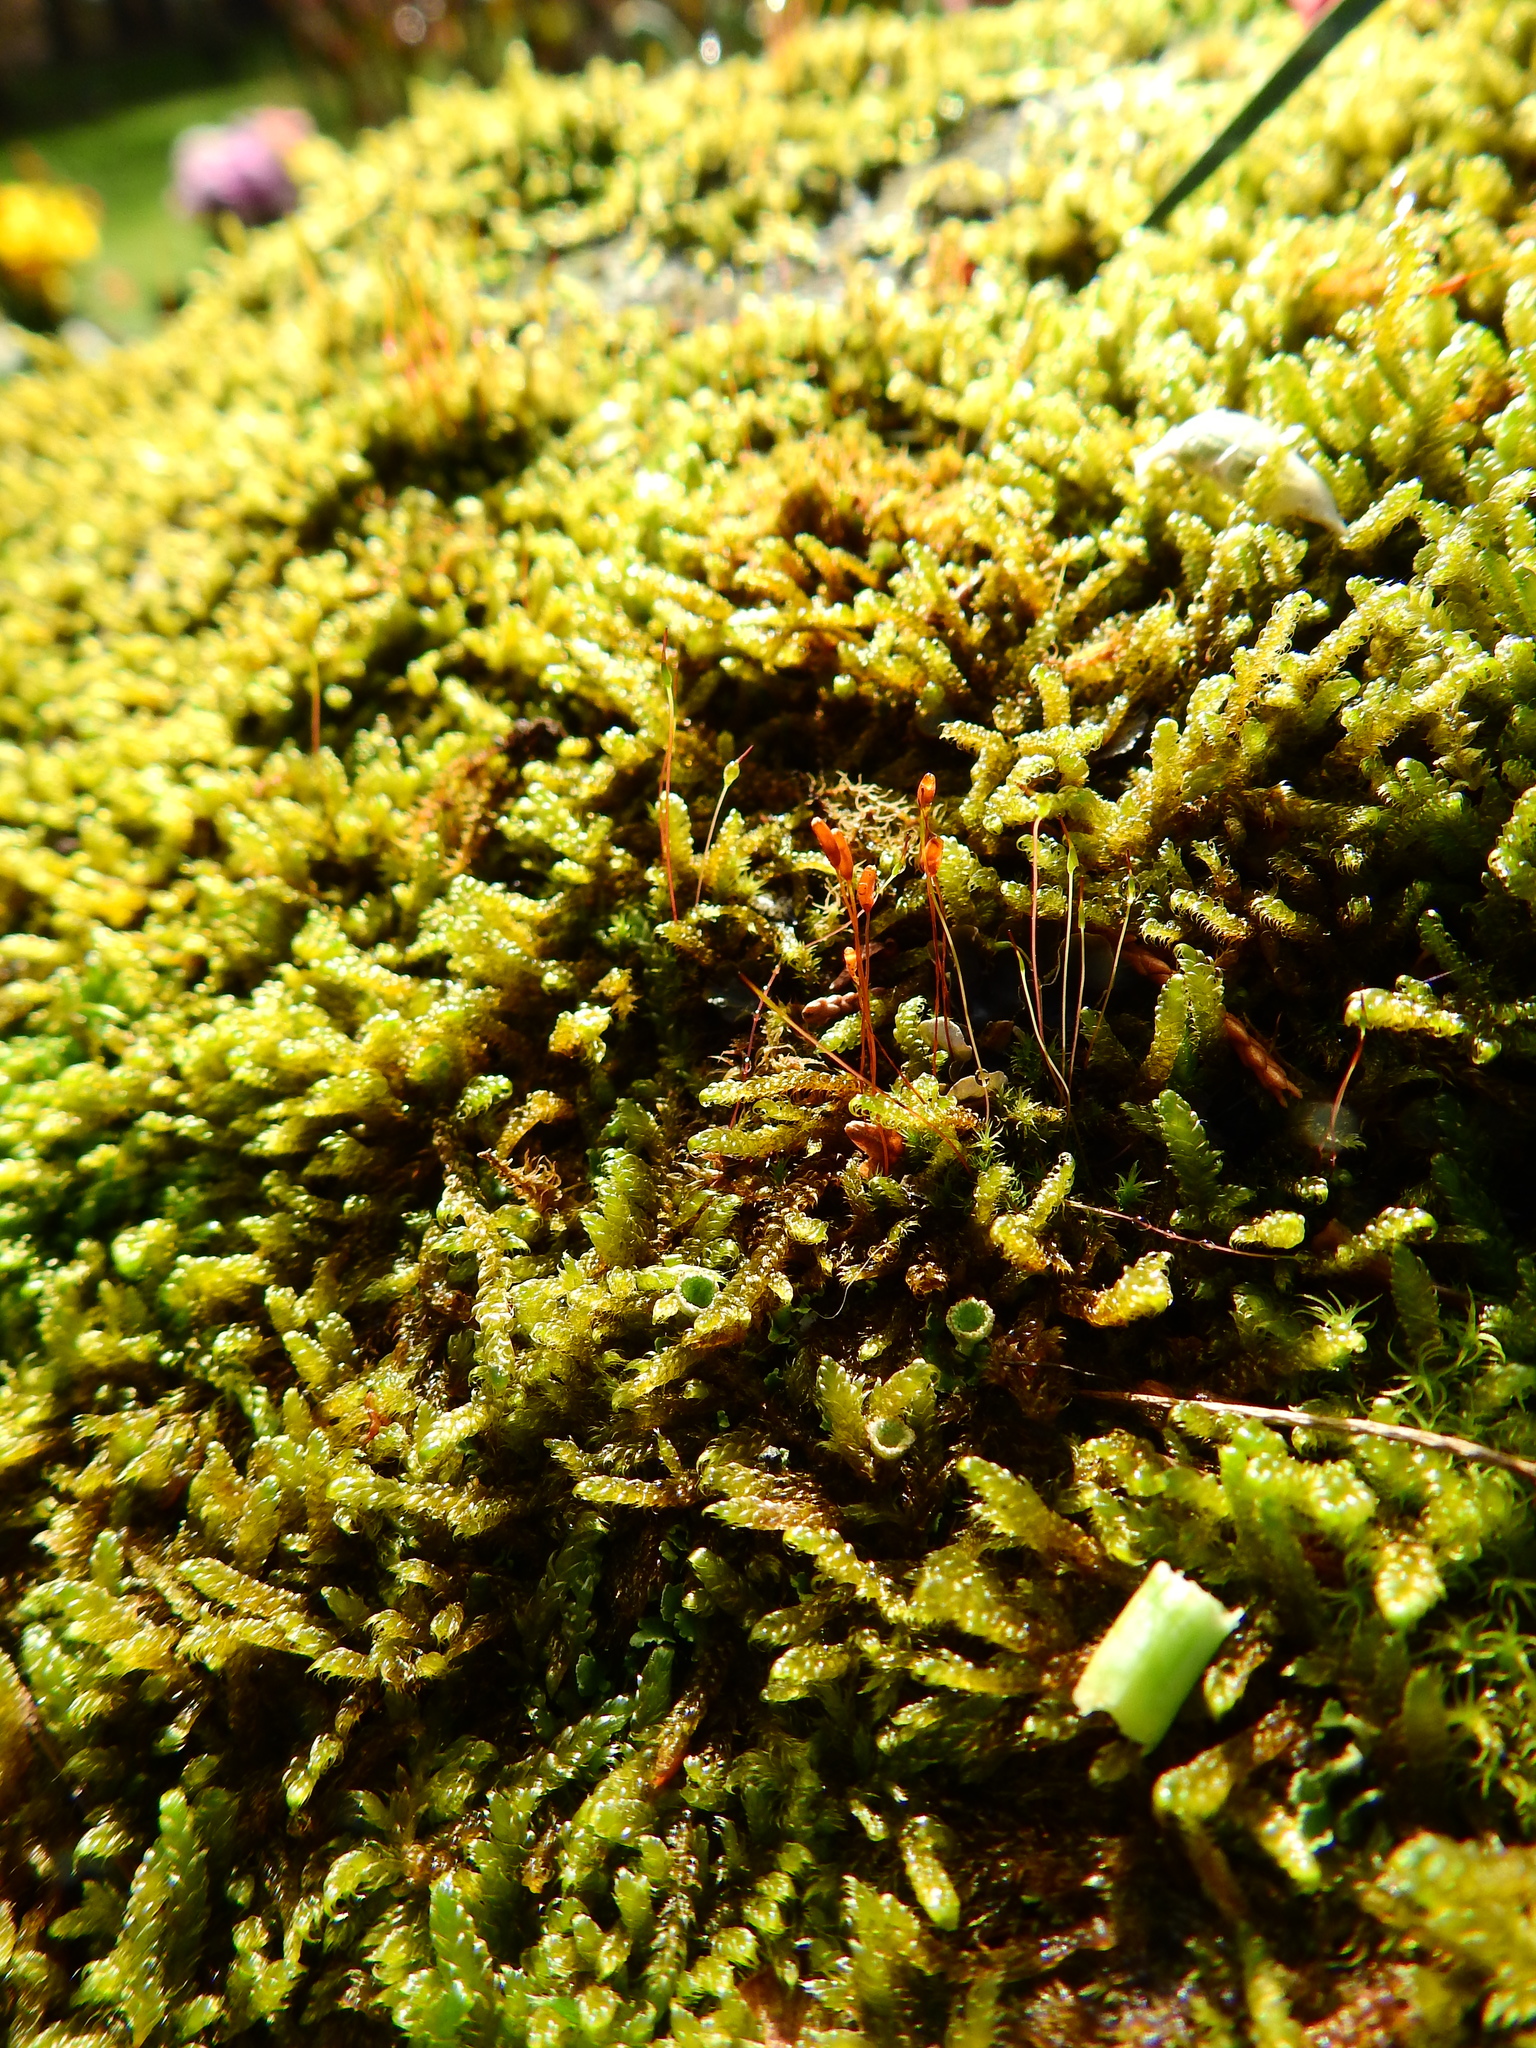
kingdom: Plantae
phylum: Bryophyta
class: Bryopsida
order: Hypnales
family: Hypnaceae
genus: Hypnum
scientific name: Hypnum cupressiforme
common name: Cypress-leaved plait-moss
